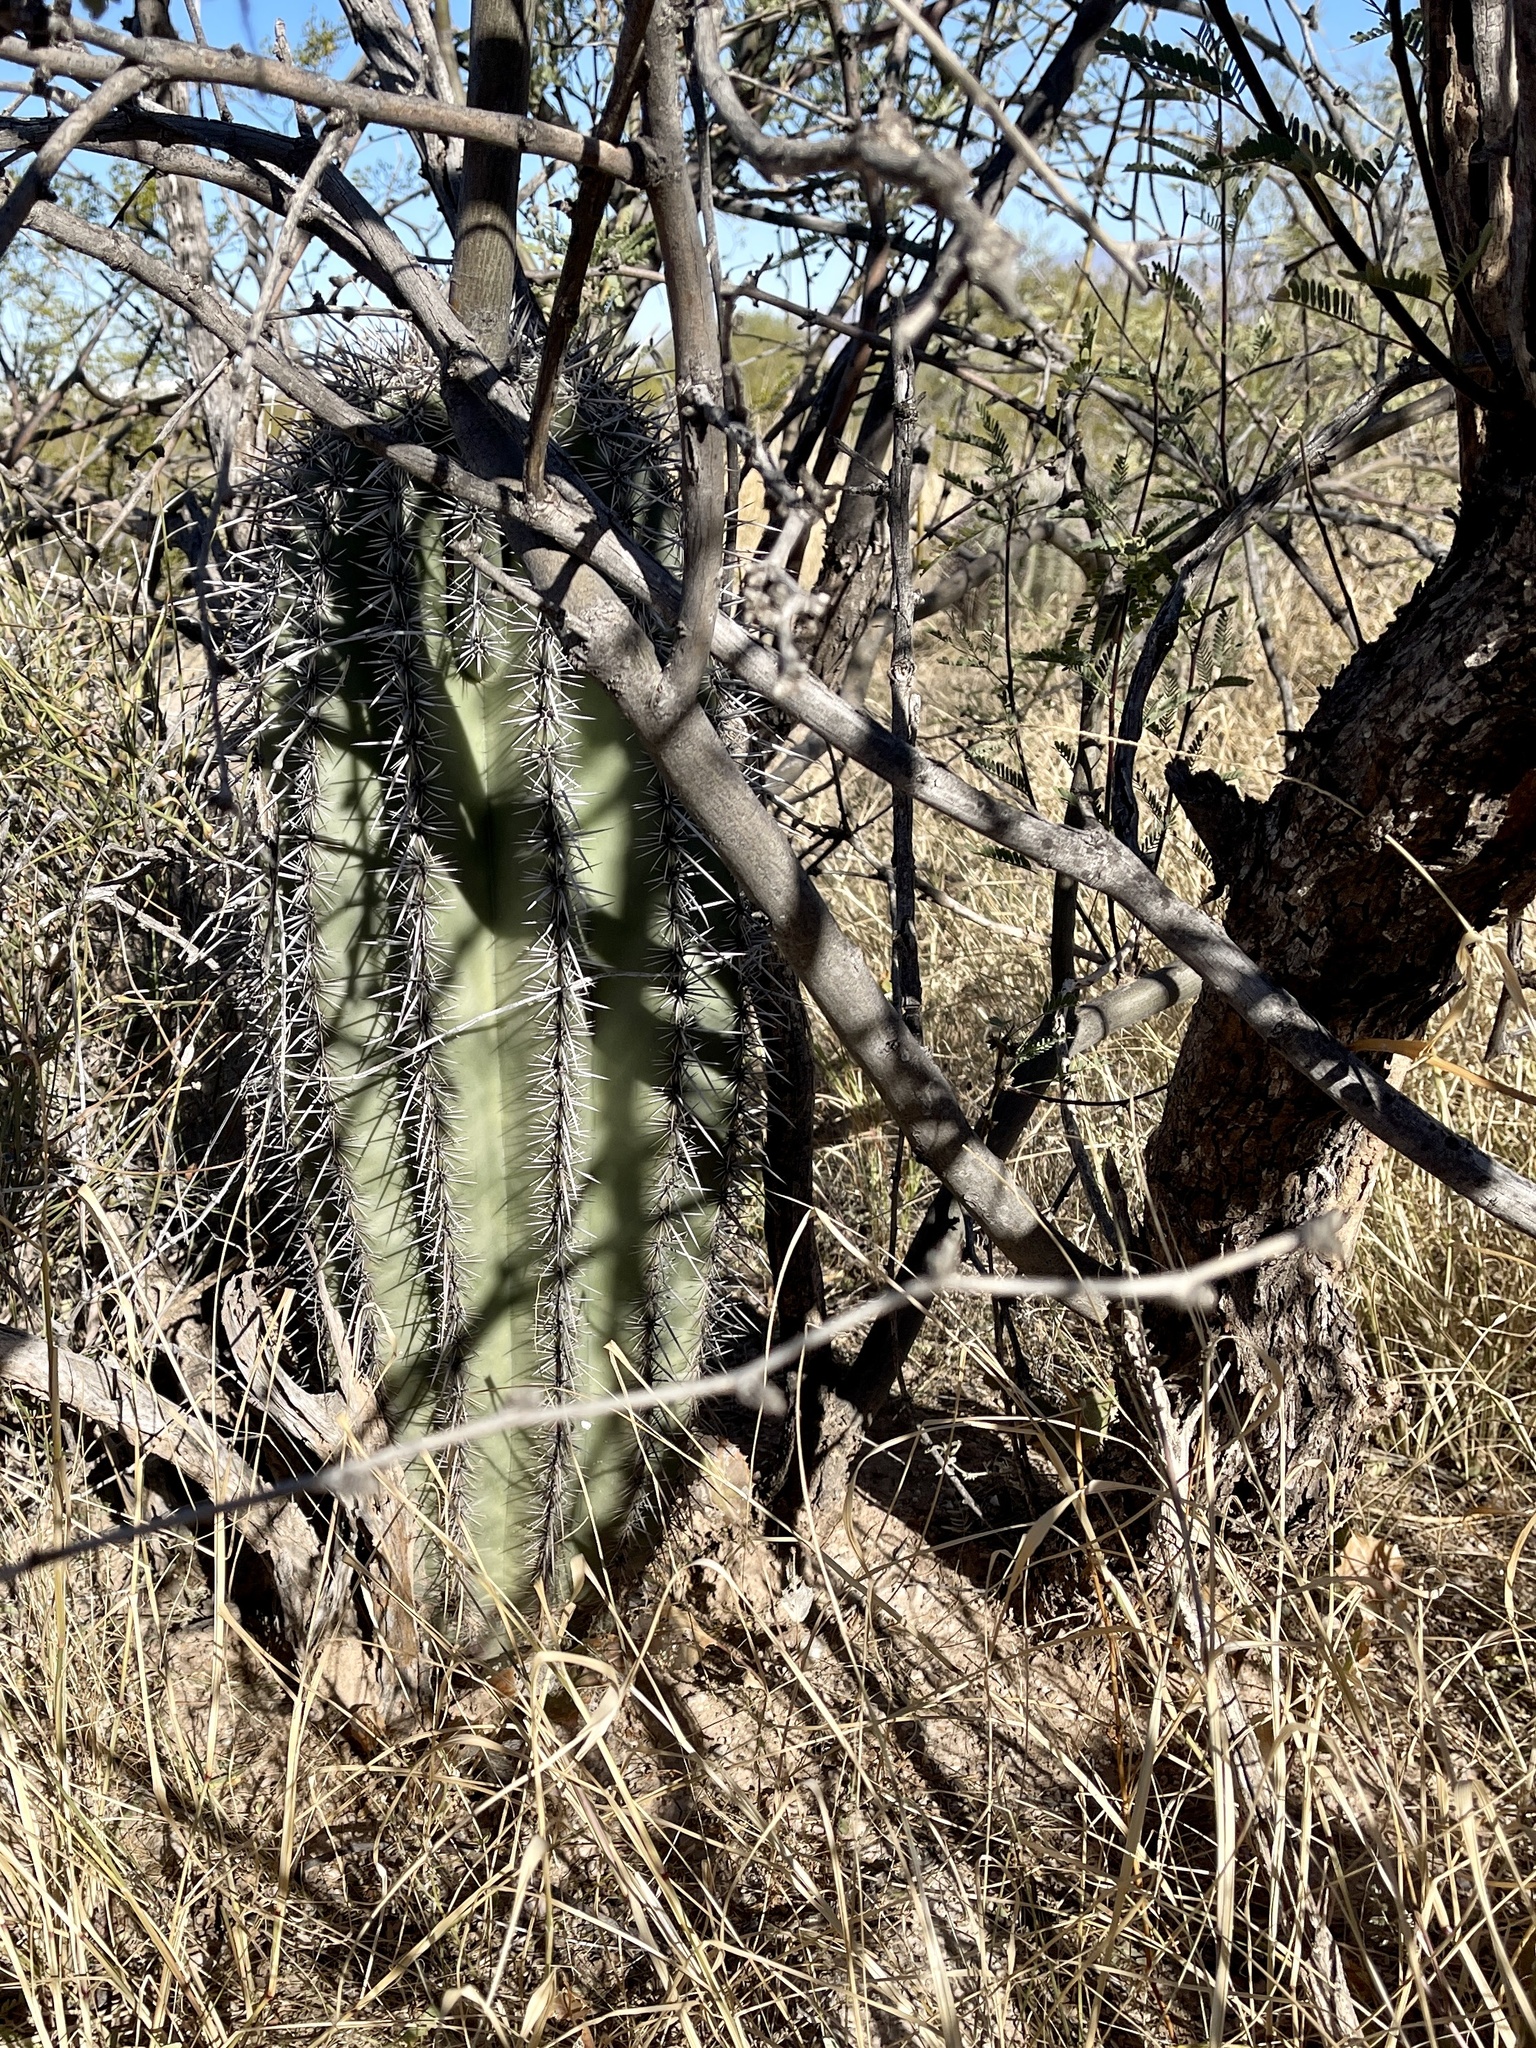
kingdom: Plantae
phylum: Tracheophyta
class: Magnoliopsida
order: Caryophyllales
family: Cactaceae
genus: Carnegiea
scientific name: Carnegiea gigantea
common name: Saguaro
